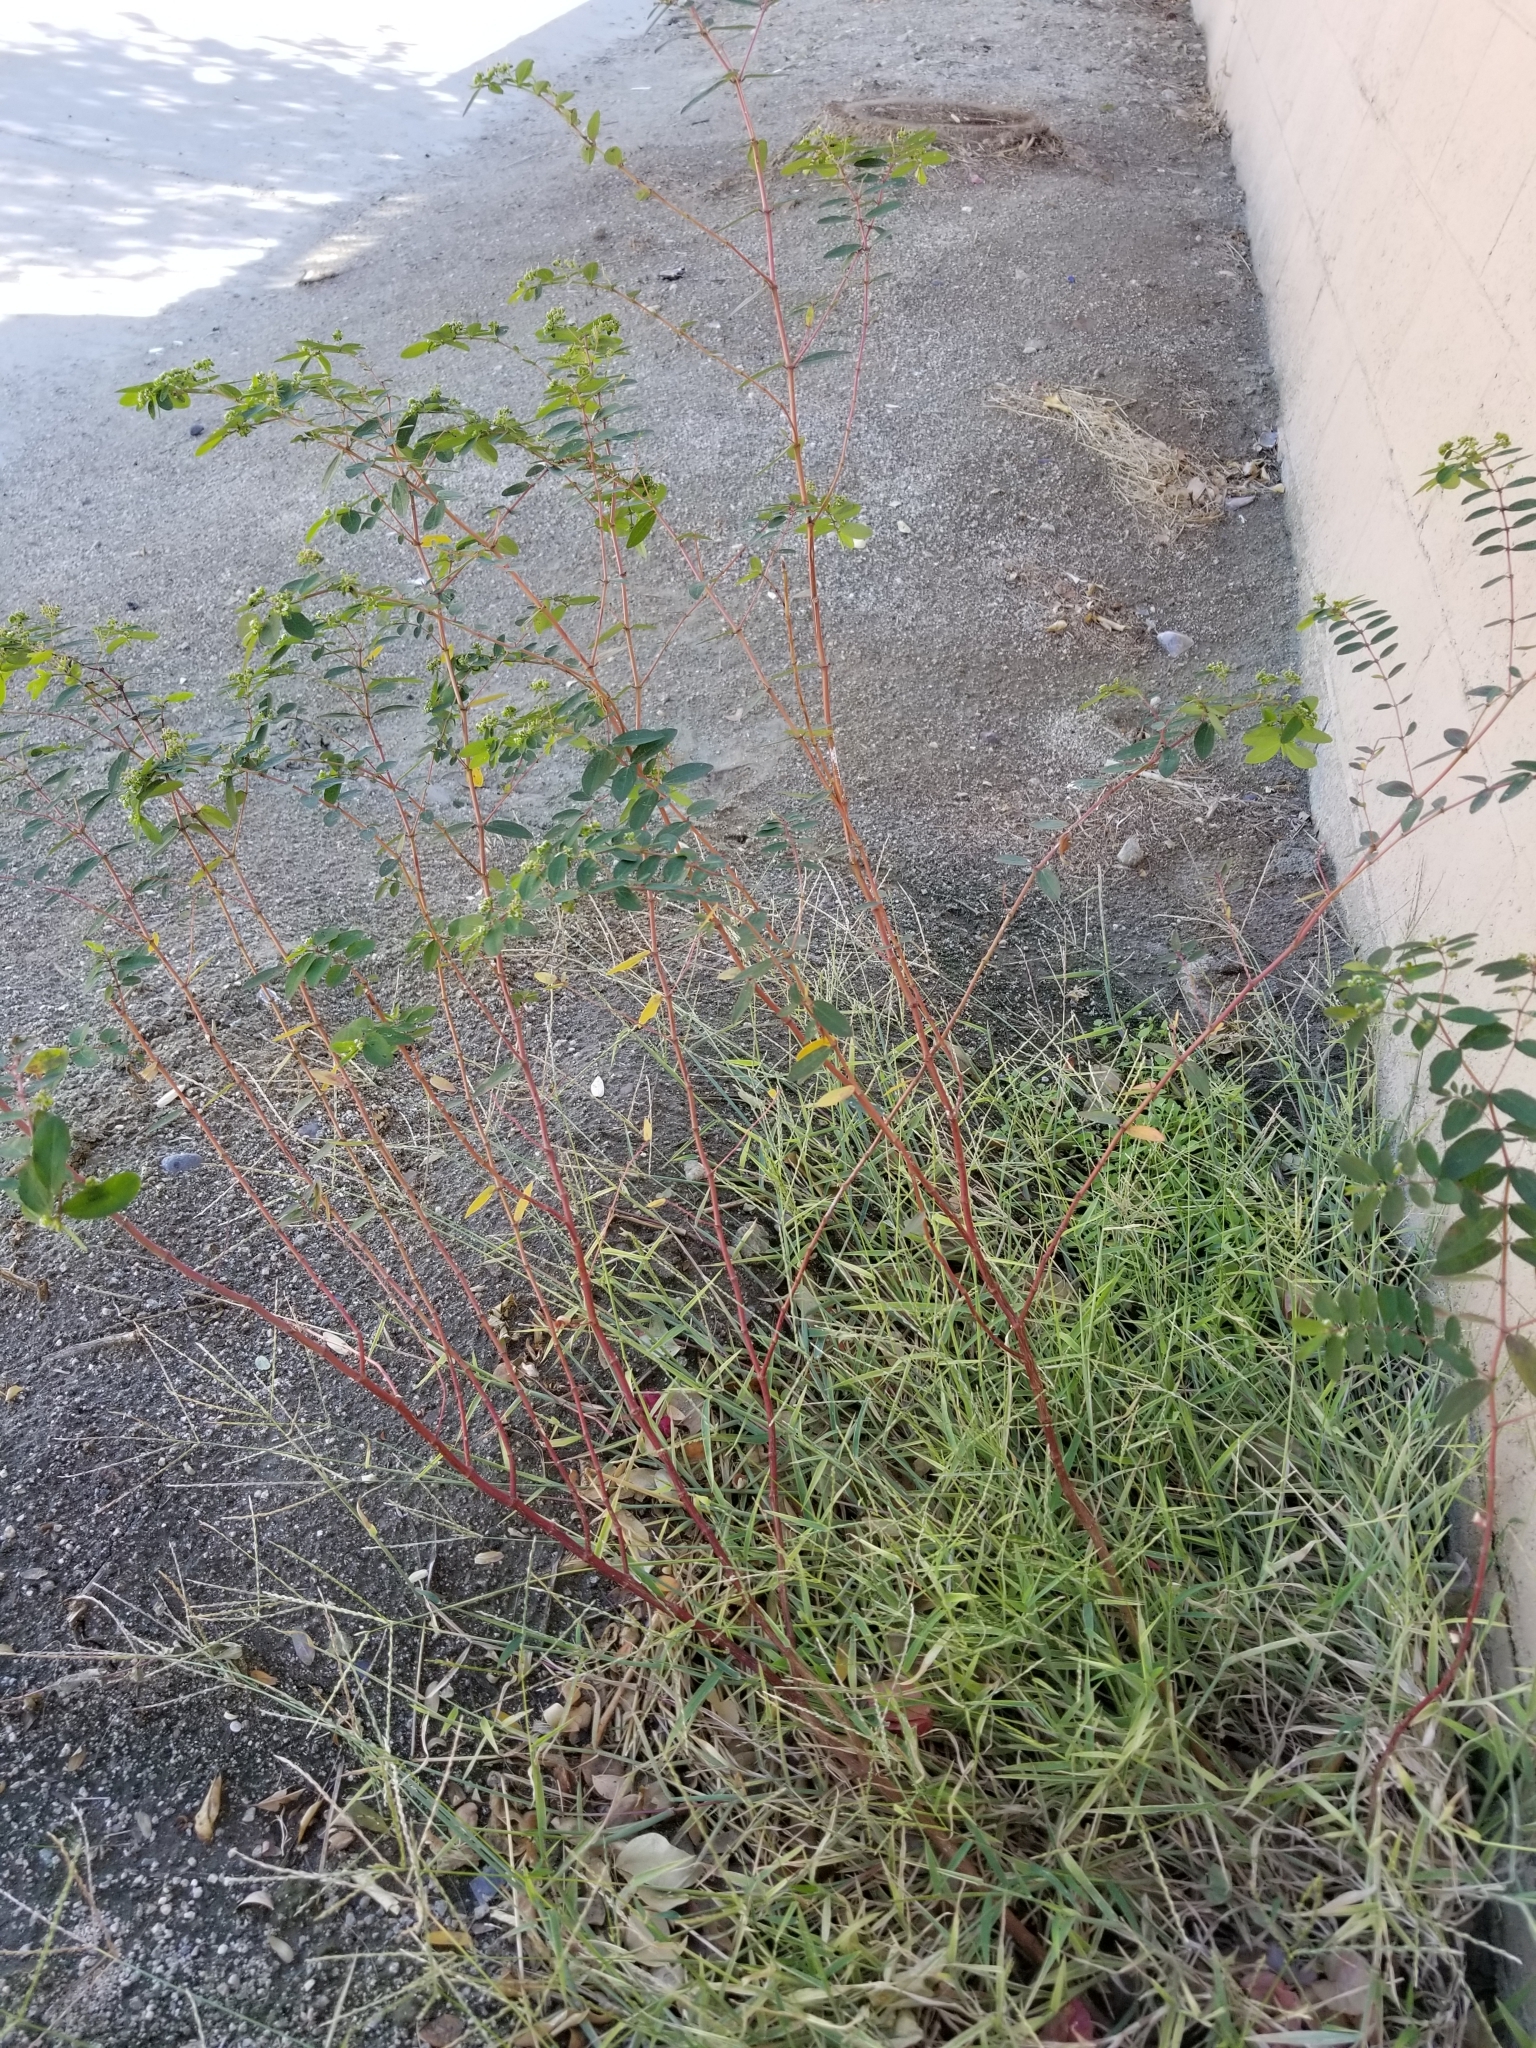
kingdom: Plantae
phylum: Tracheophyta
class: Magnoliopsida
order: Malpighiales
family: Euphorbiaceae
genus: Euphorbia
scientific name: Euphorbia hypericifolia
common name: Graceful sandmat
